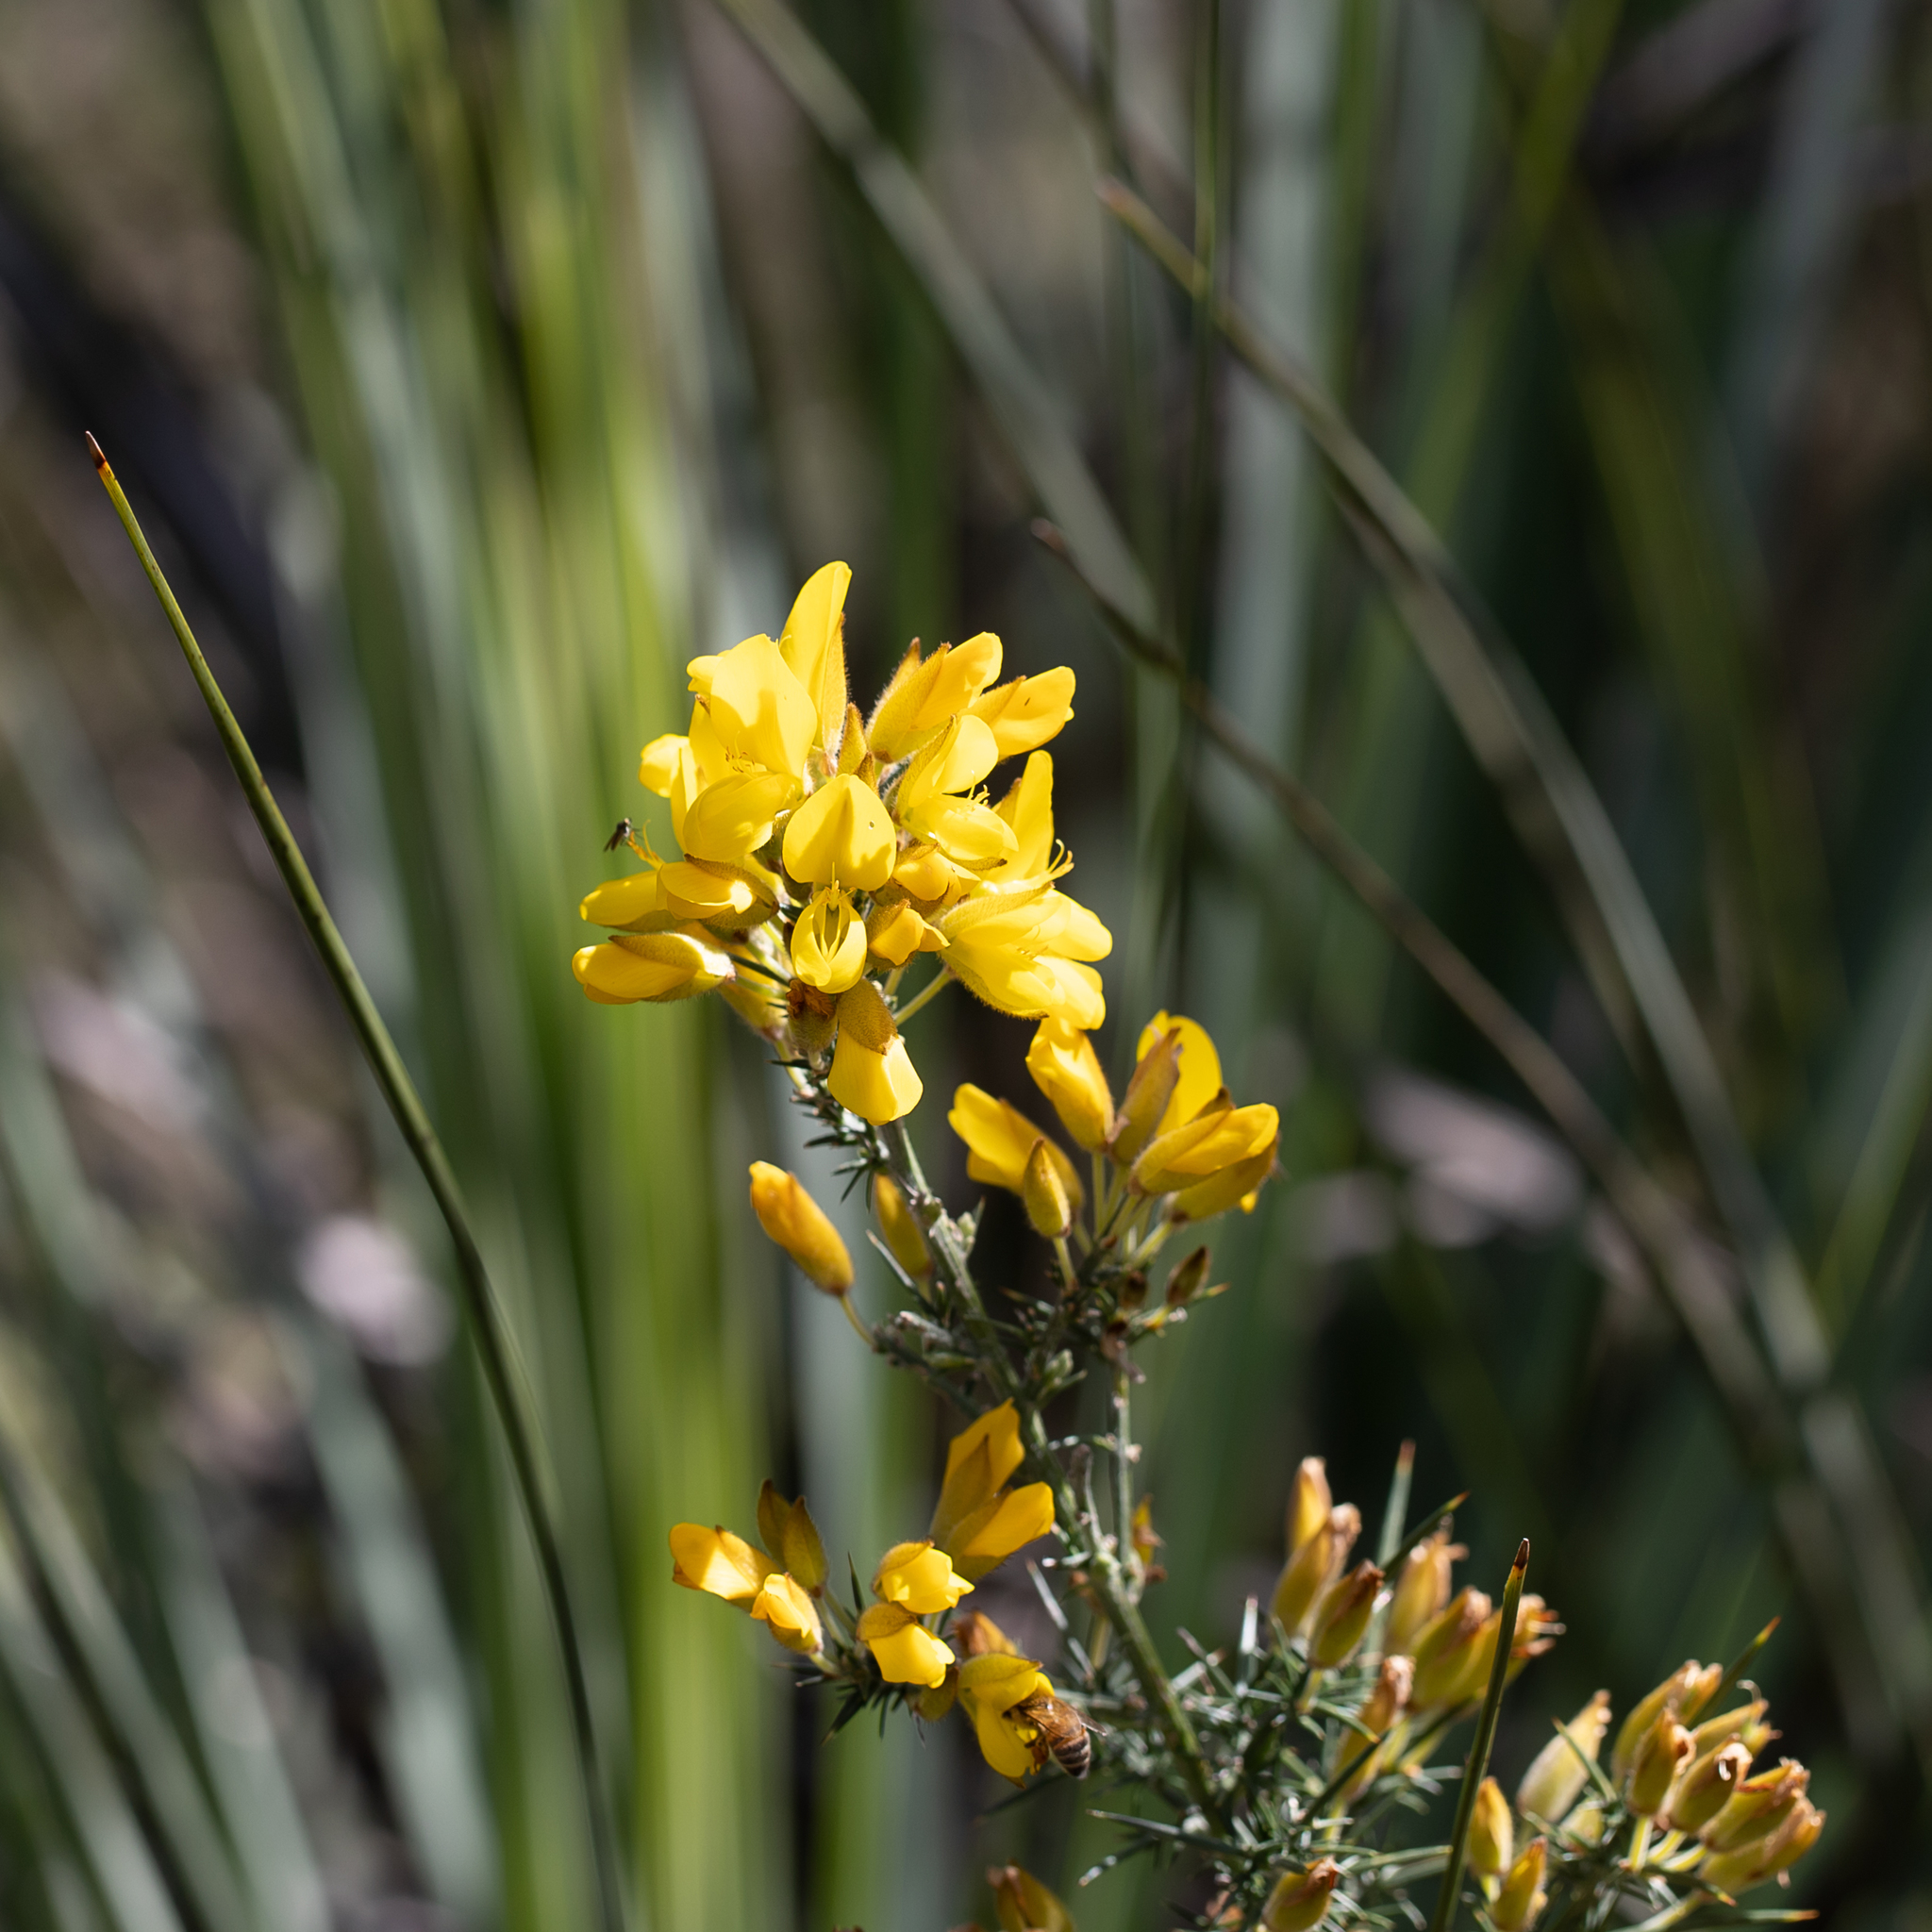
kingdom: Plantae
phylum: Tracheophyta
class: Magnoliopsida
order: Fabales
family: Fabaceae
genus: Ulex
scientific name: Ulex europaeus
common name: Common gorse
